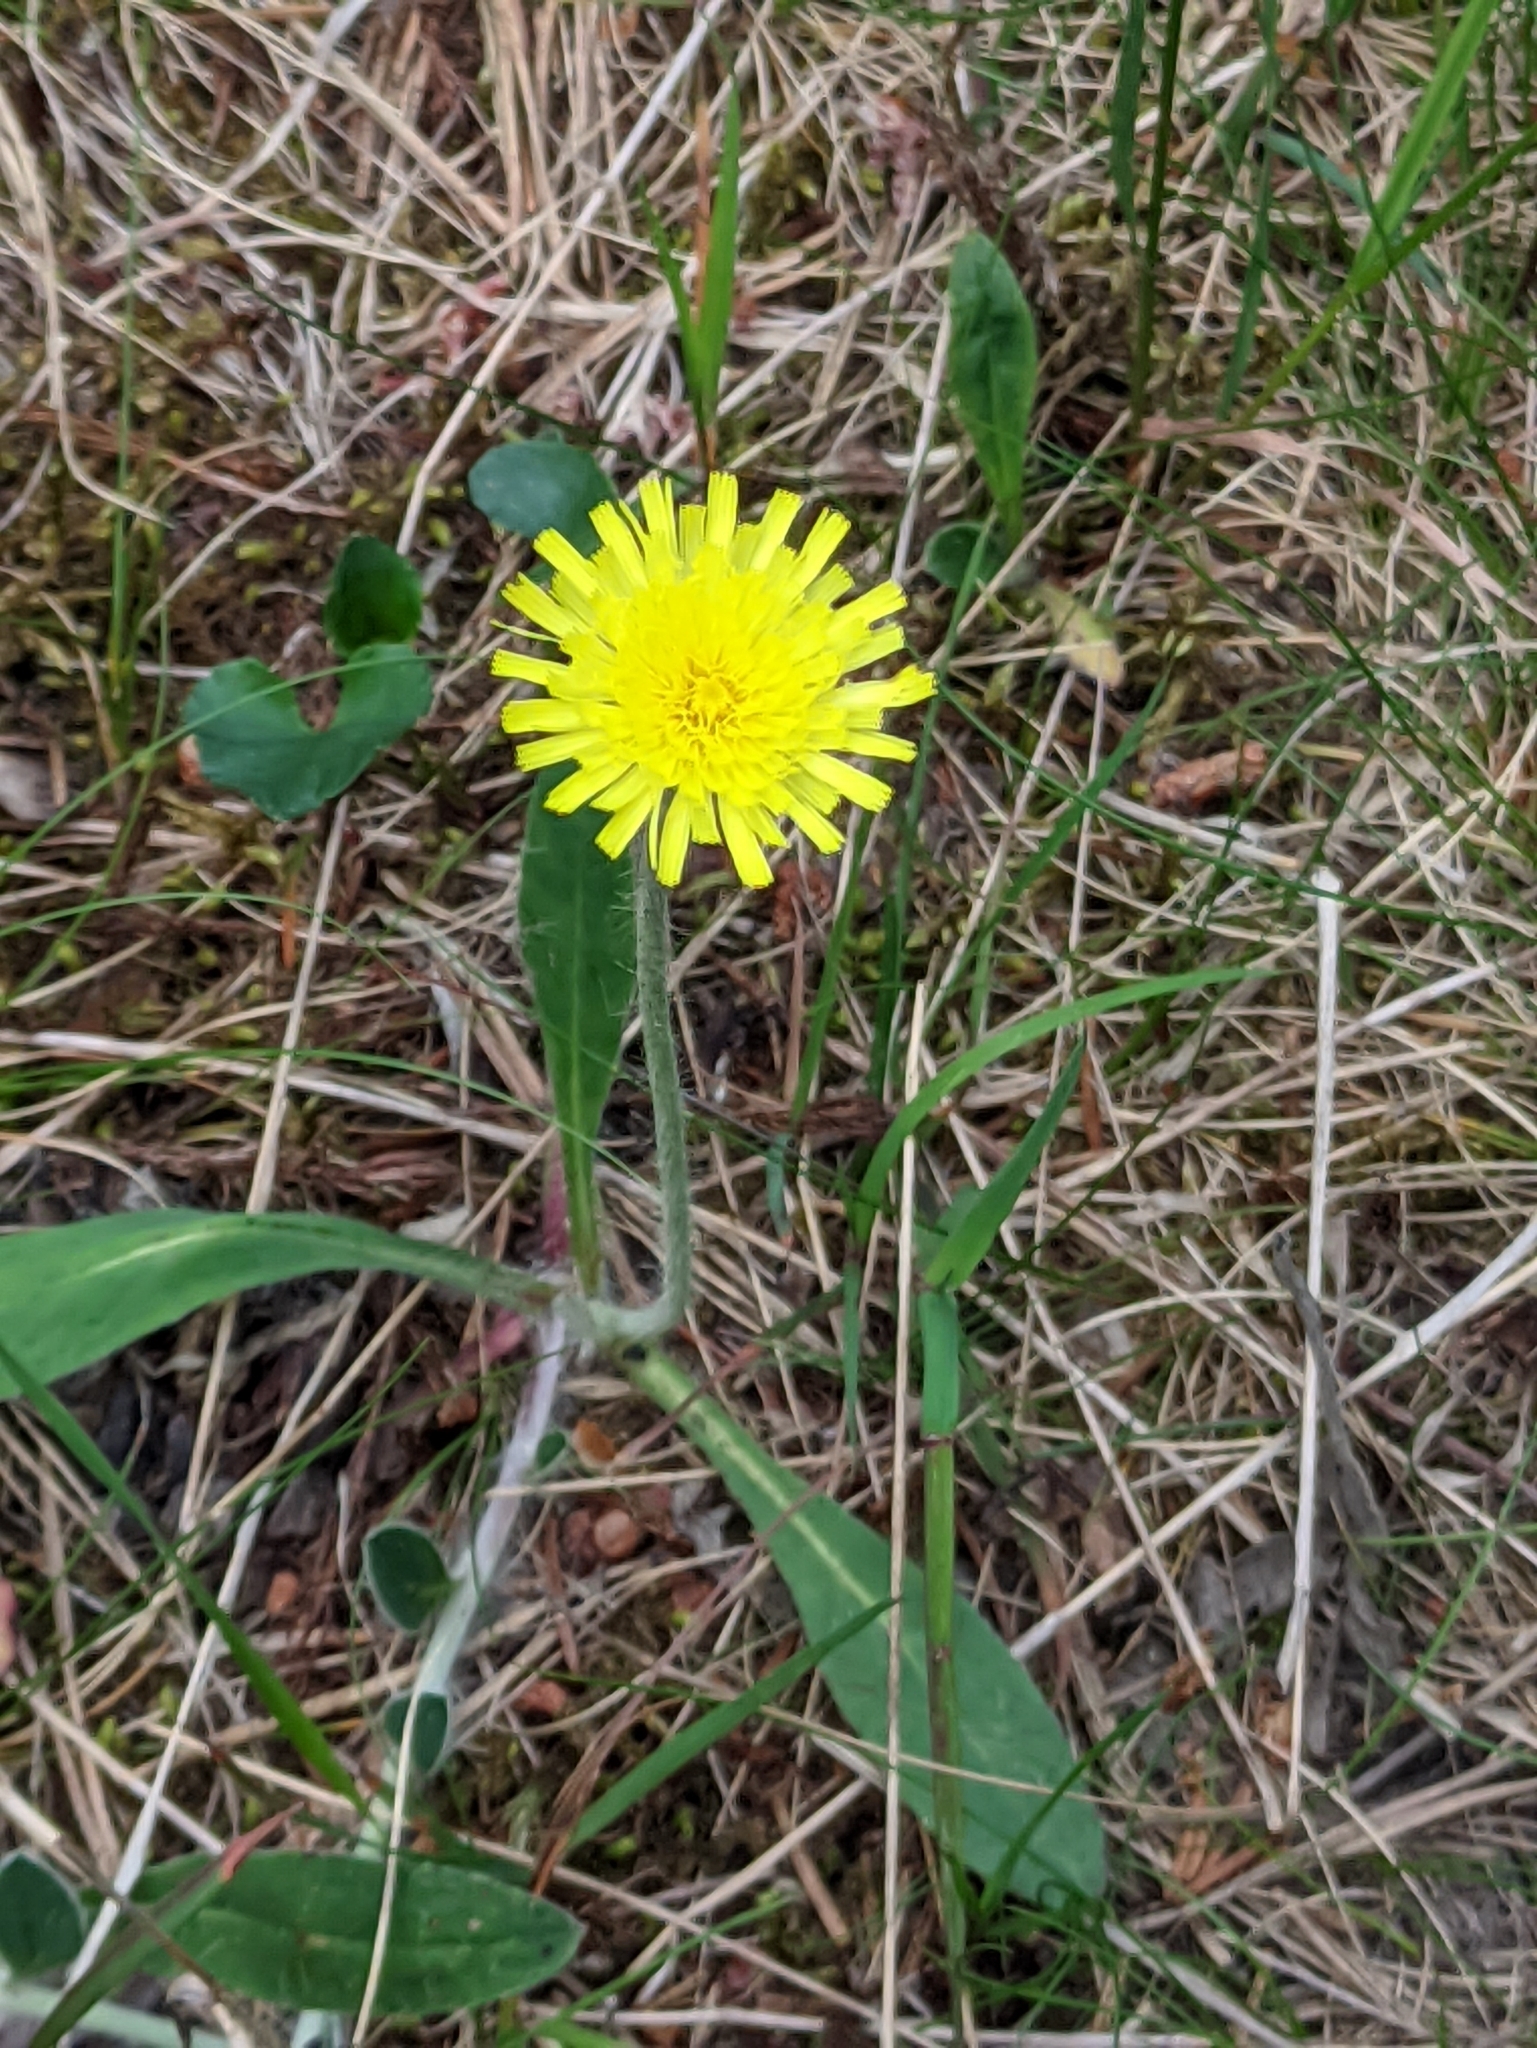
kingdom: Plantae
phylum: Tracheophyta
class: Magnoliopsida
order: Asterales
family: Asteraceae
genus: Pilosella
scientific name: Pilosella officinarum
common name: Mouse-ear hawkweed
